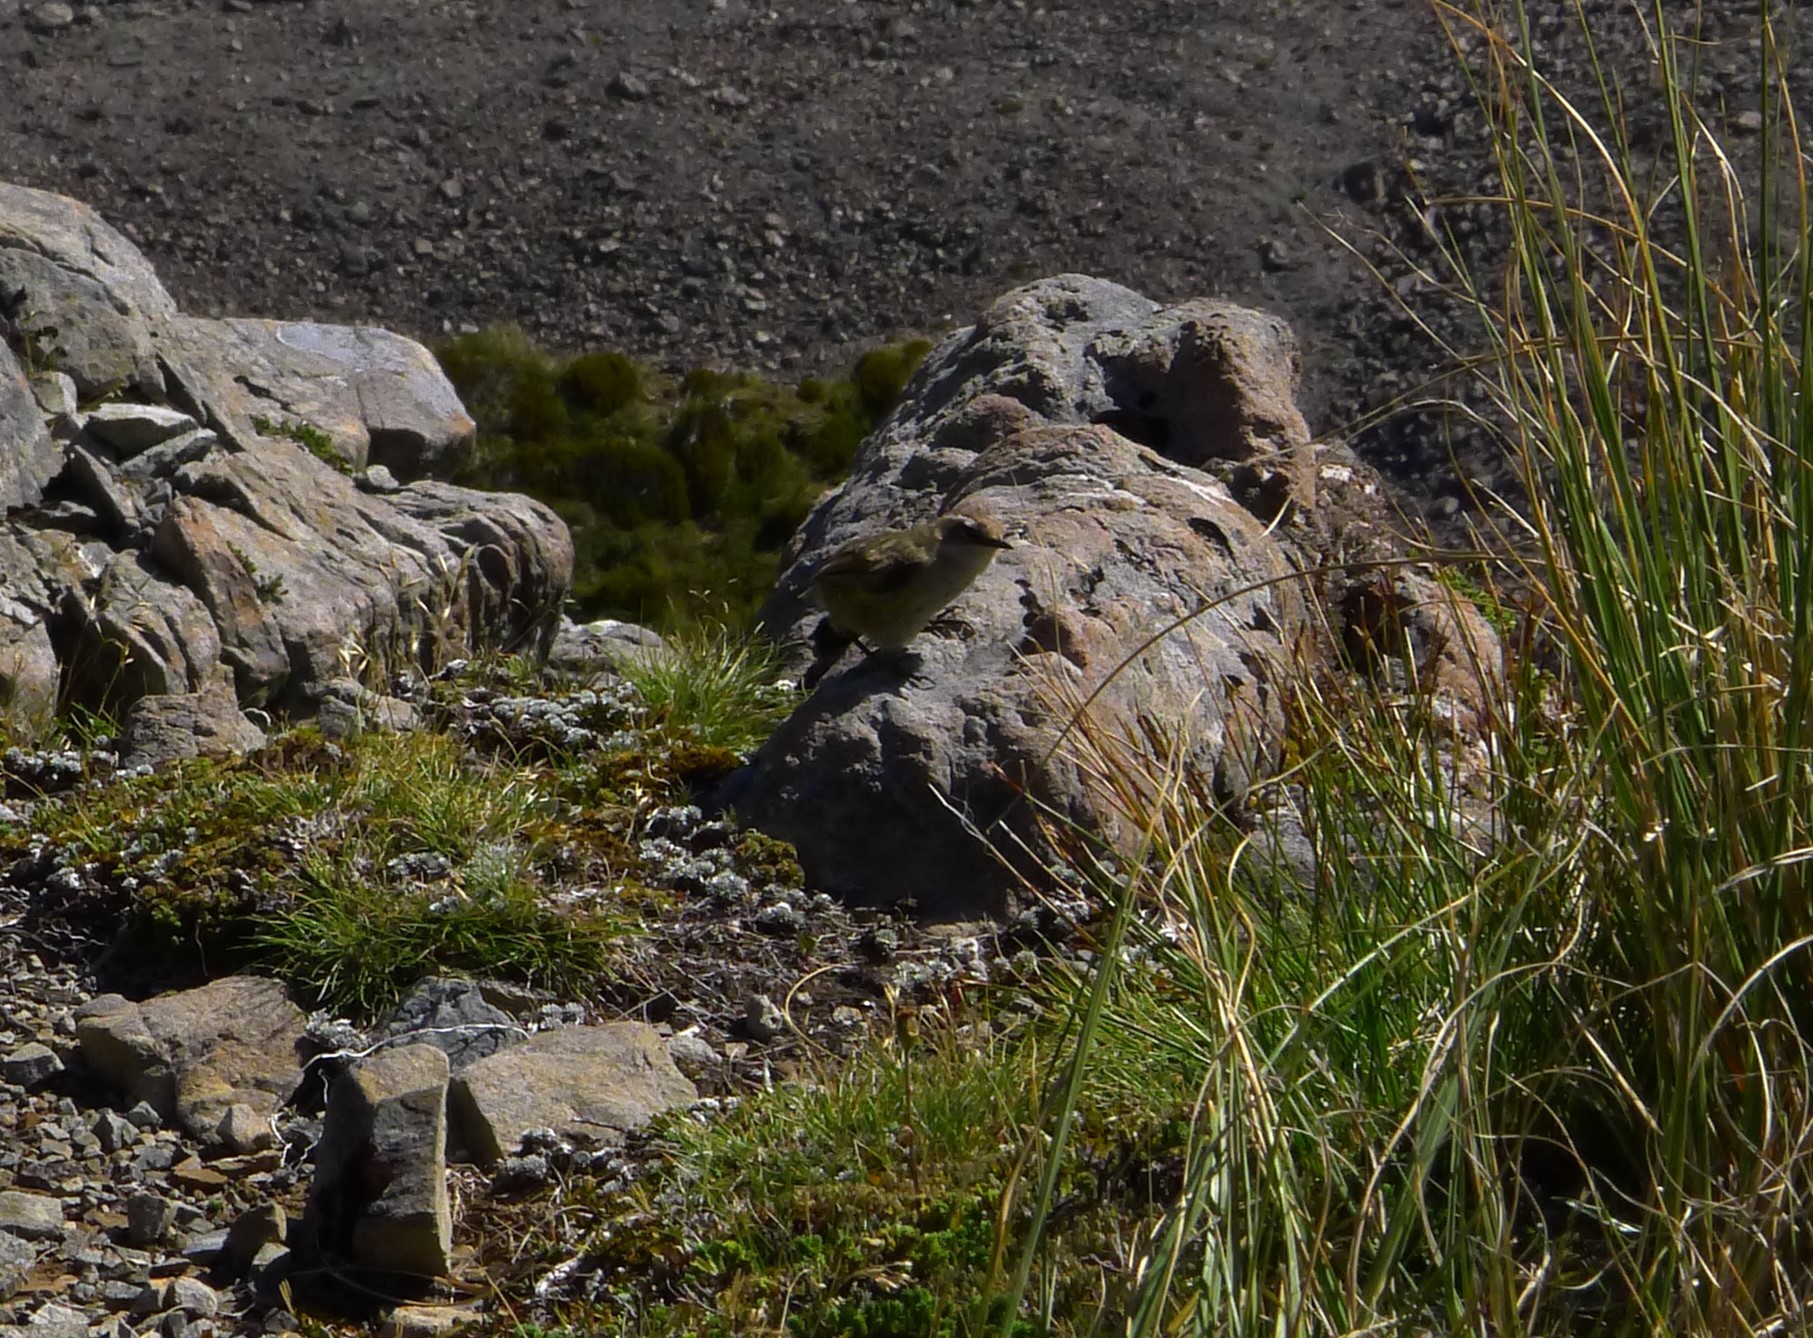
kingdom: Animalia
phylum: Chordata
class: Aves
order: Passeriformes
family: Acanthisittidae
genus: Xenicus
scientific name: Xenicus gilviventris
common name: New zealand rockwren
